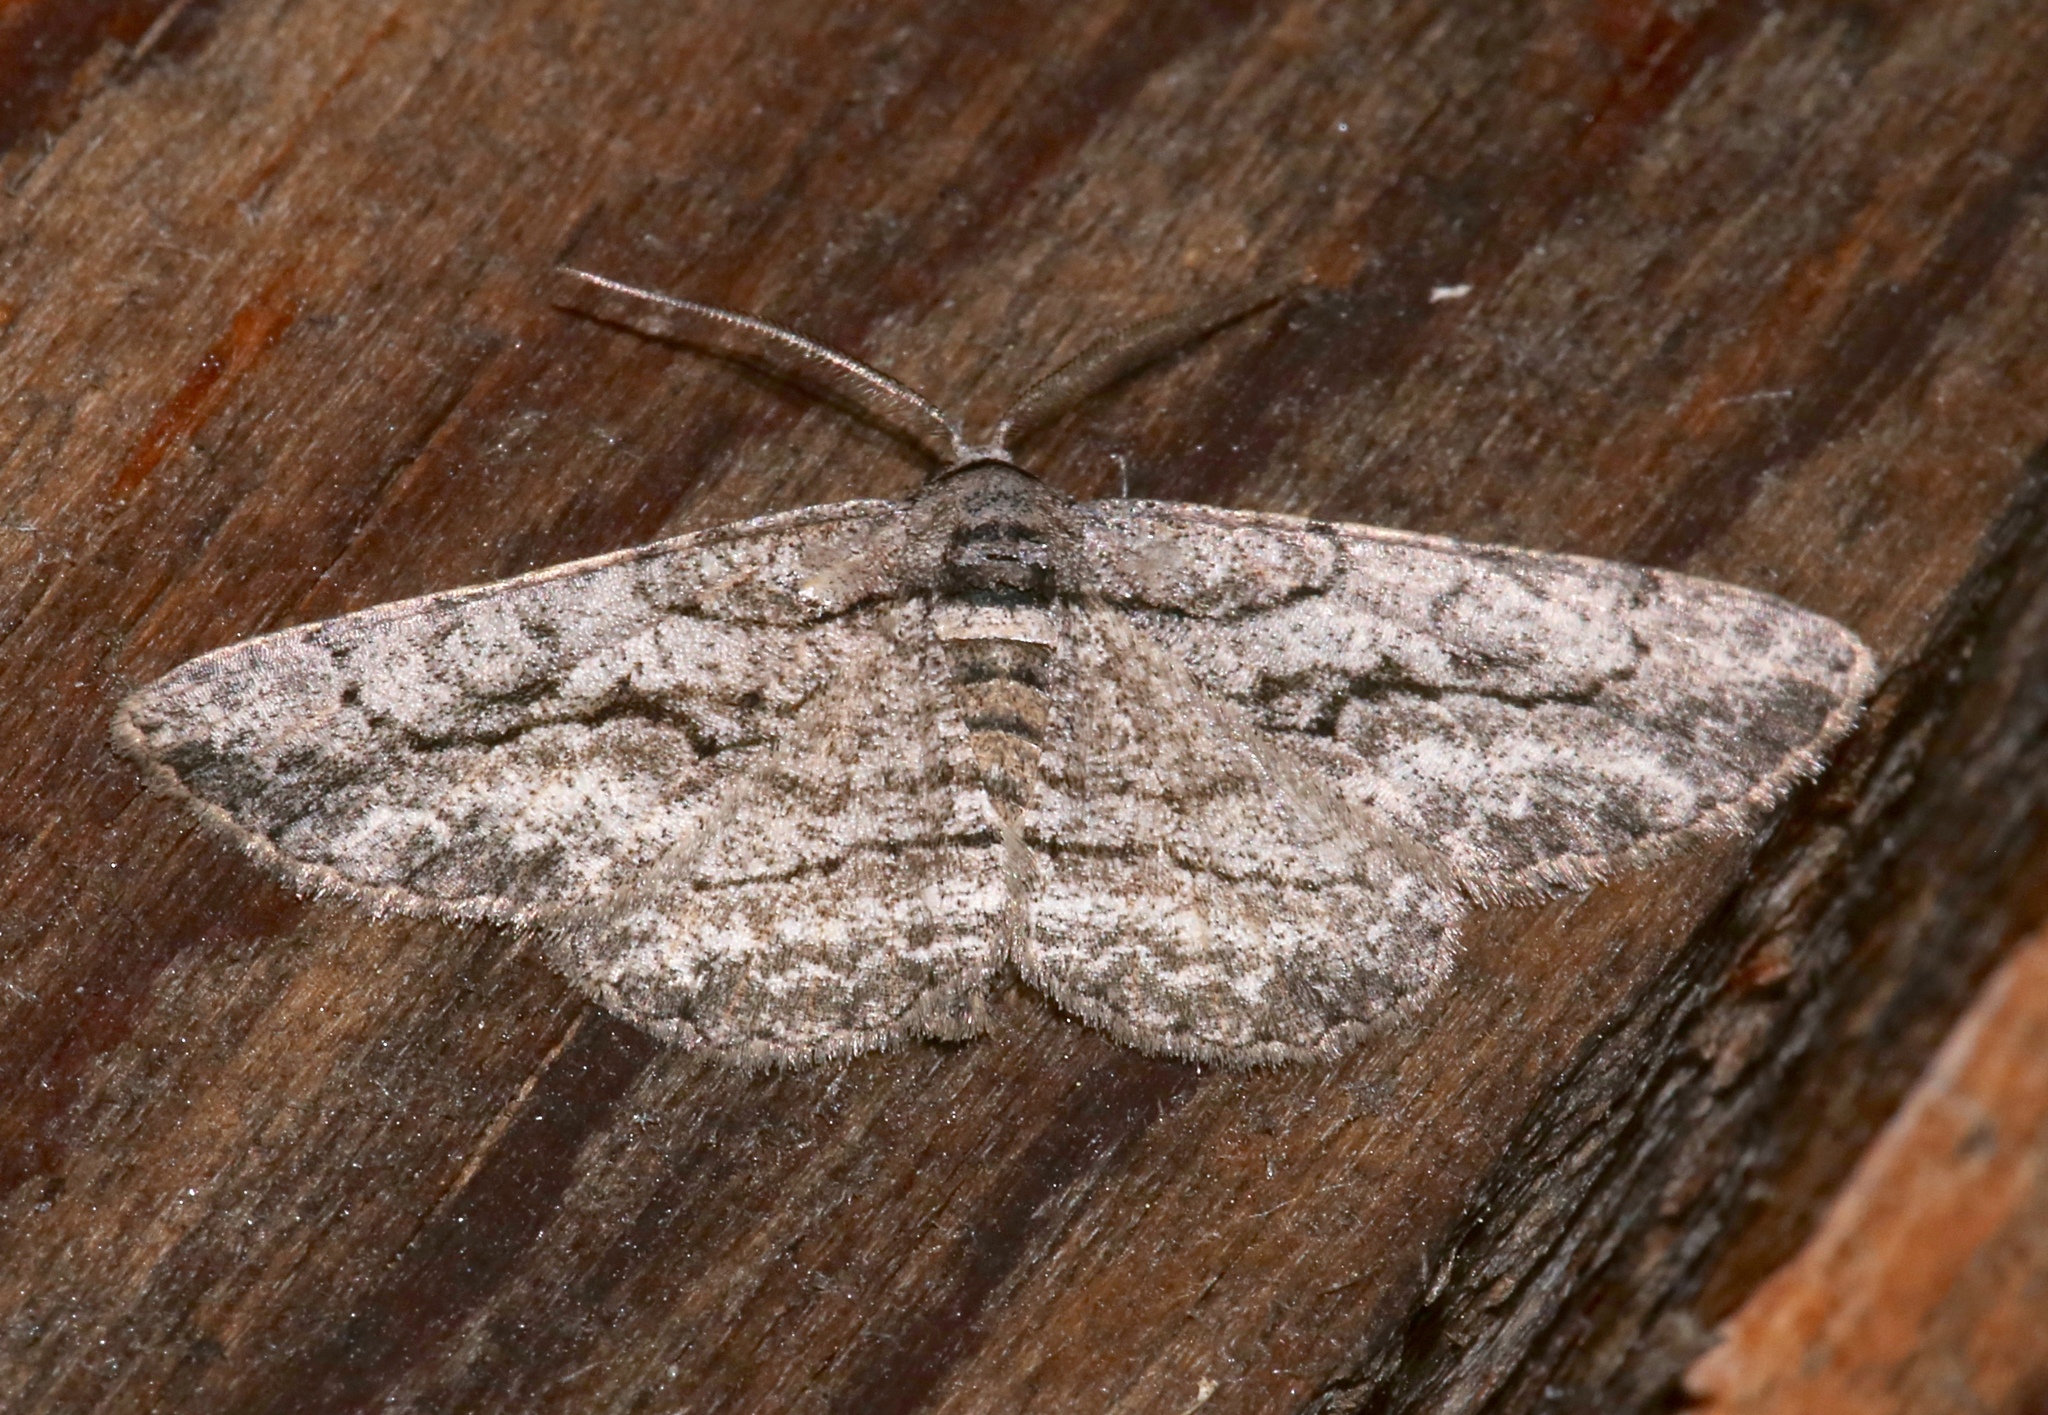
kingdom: Animalia
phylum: Arthropoda
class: Insecta
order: Lepidoptera
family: Geometridae
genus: Anavitrinella
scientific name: Anavitrinella pampinaria
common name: Common gray
